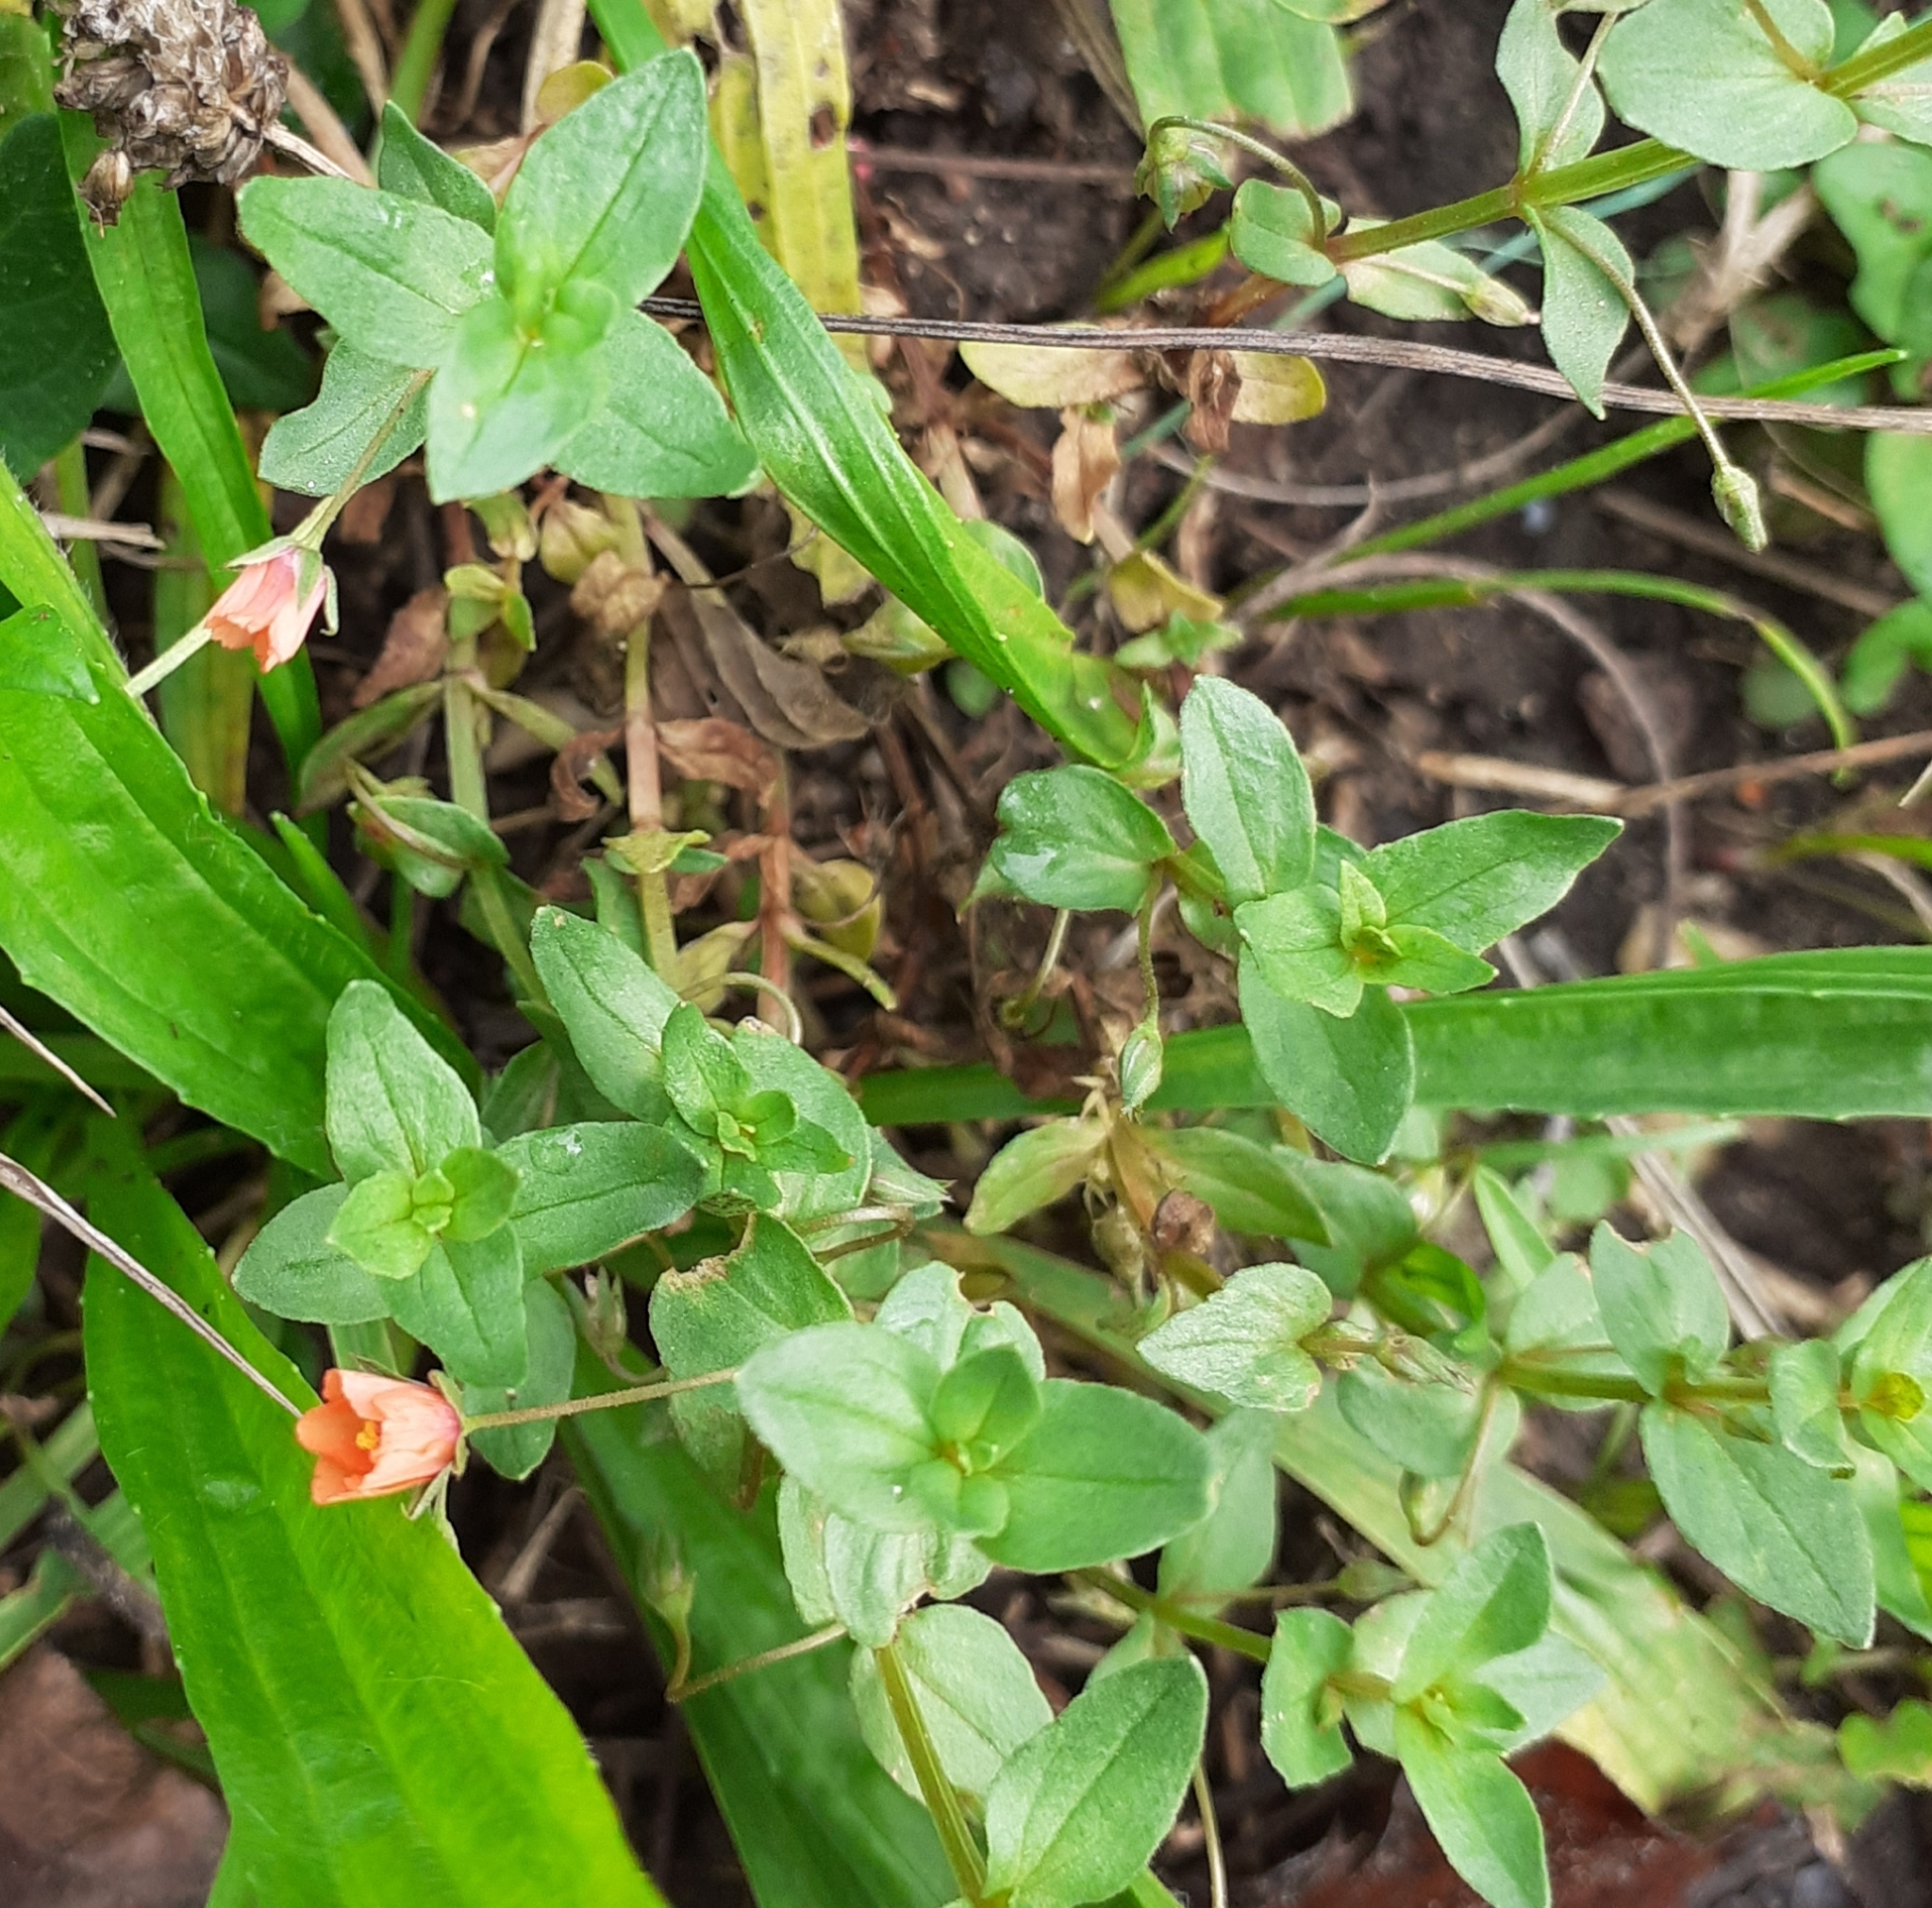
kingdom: Plantae
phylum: Tracheophyta
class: Magnoliopsida
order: Ericales
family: Primulaceae
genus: Lysimachia
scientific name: Lysimachia arvensis
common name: Scarlet pimpernel
